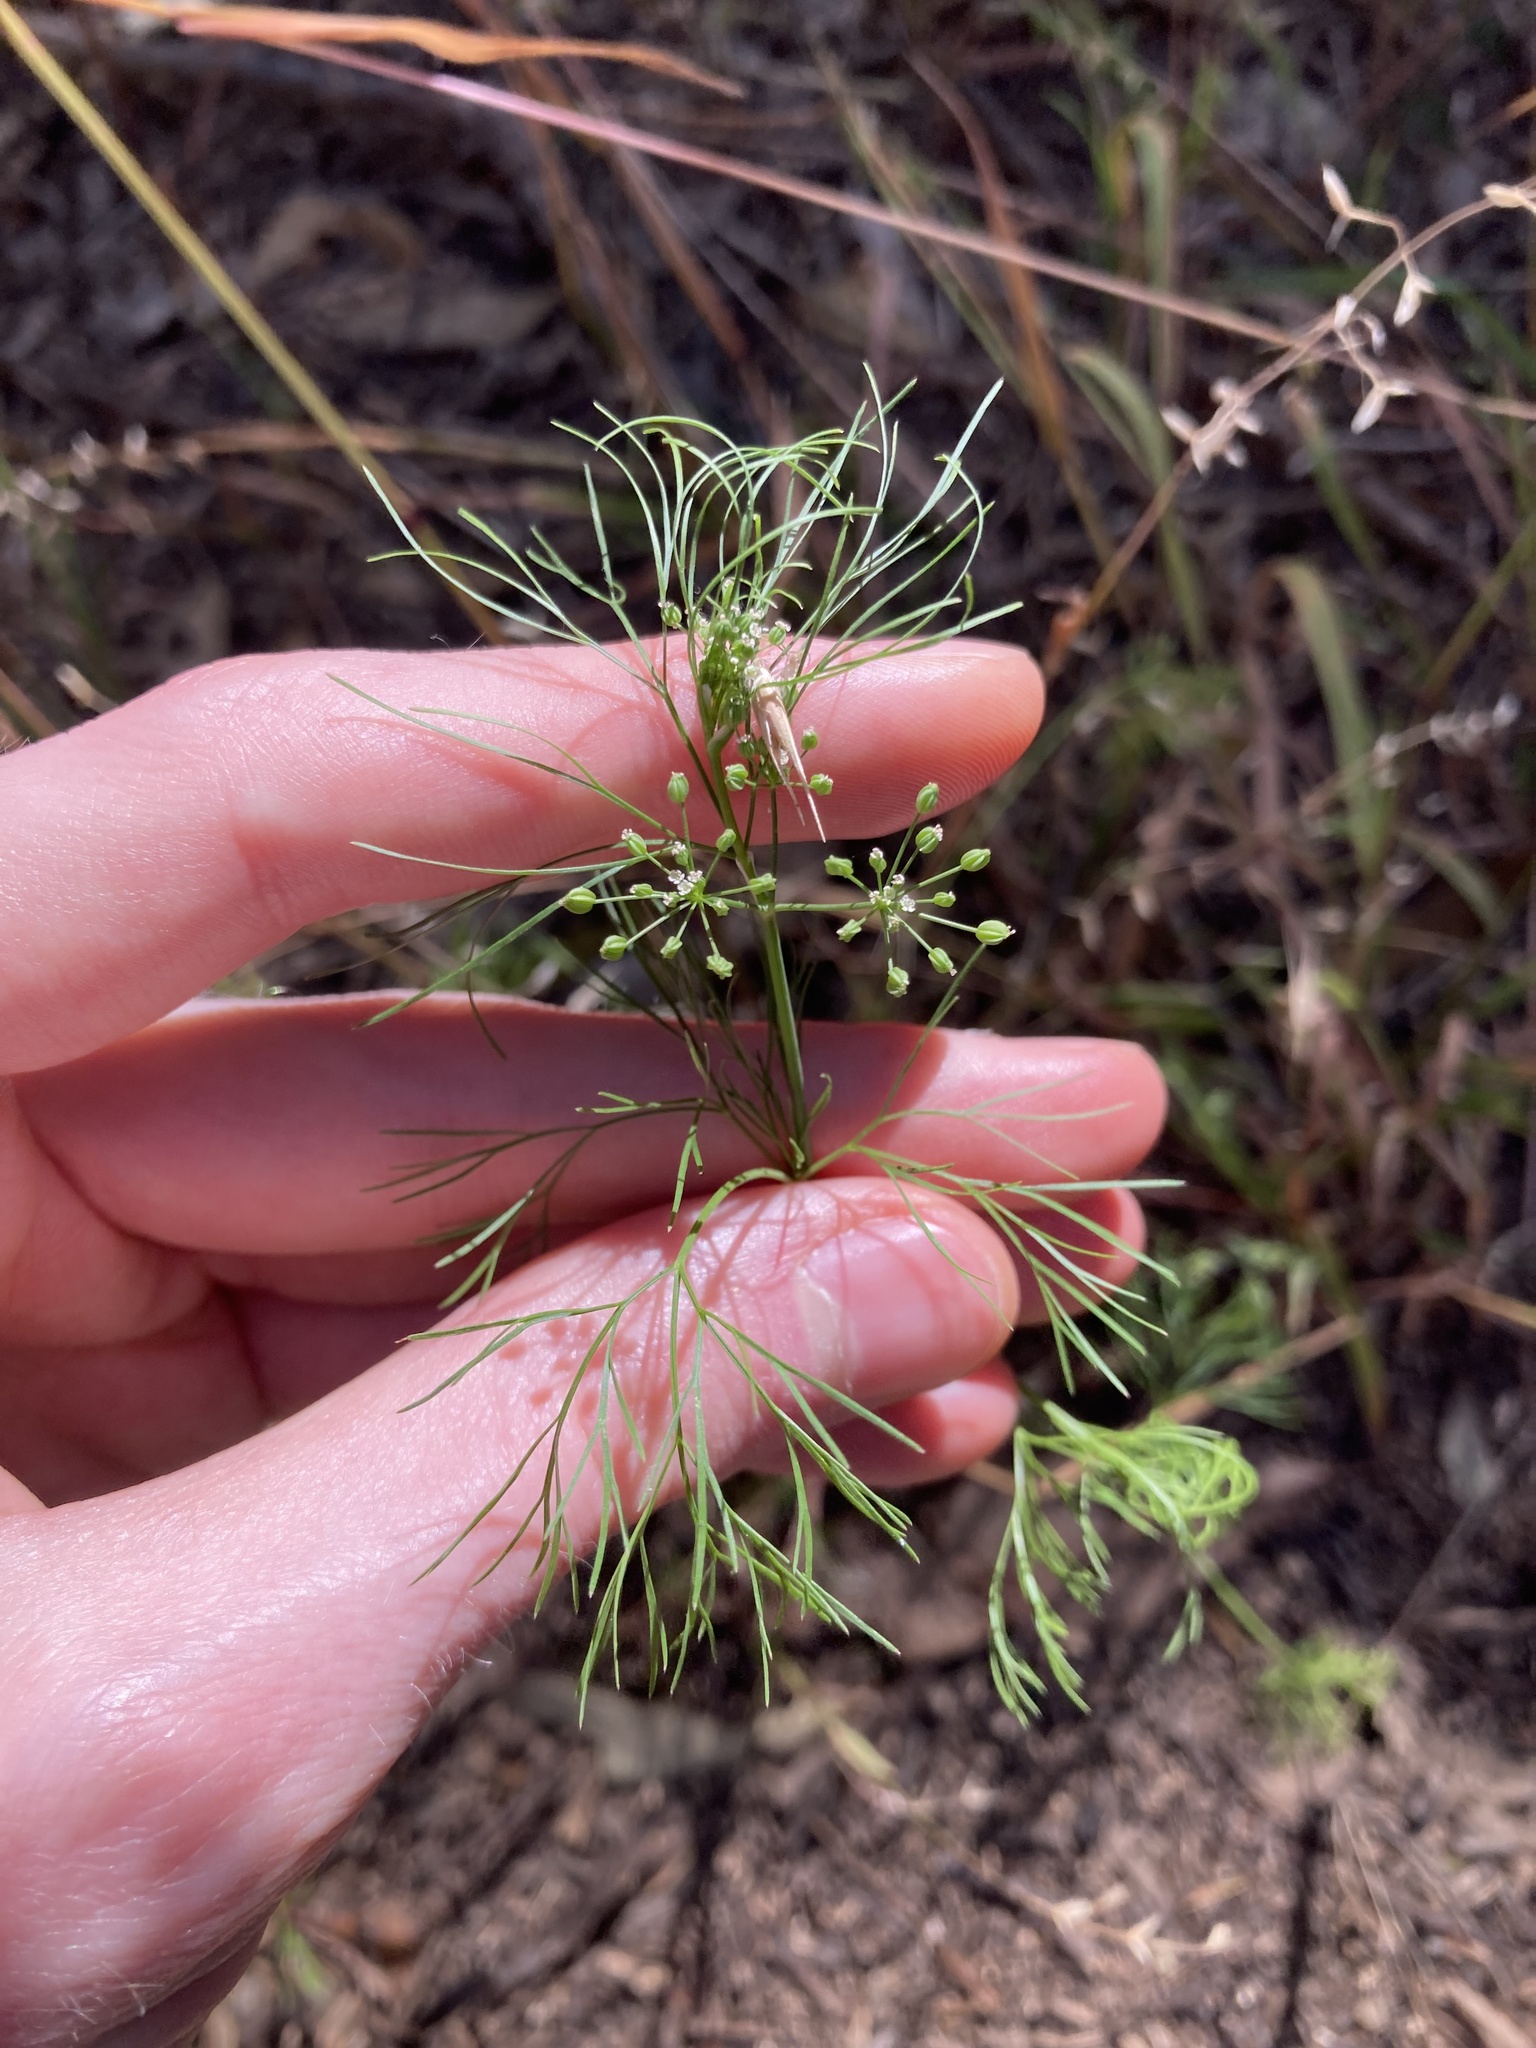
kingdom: Plantae
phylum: Tracheophyta
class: Magnoliopsida
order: Apiales
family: Apiaceae
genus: Cyclospermum
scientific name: Cyclospermum leptophyllum
